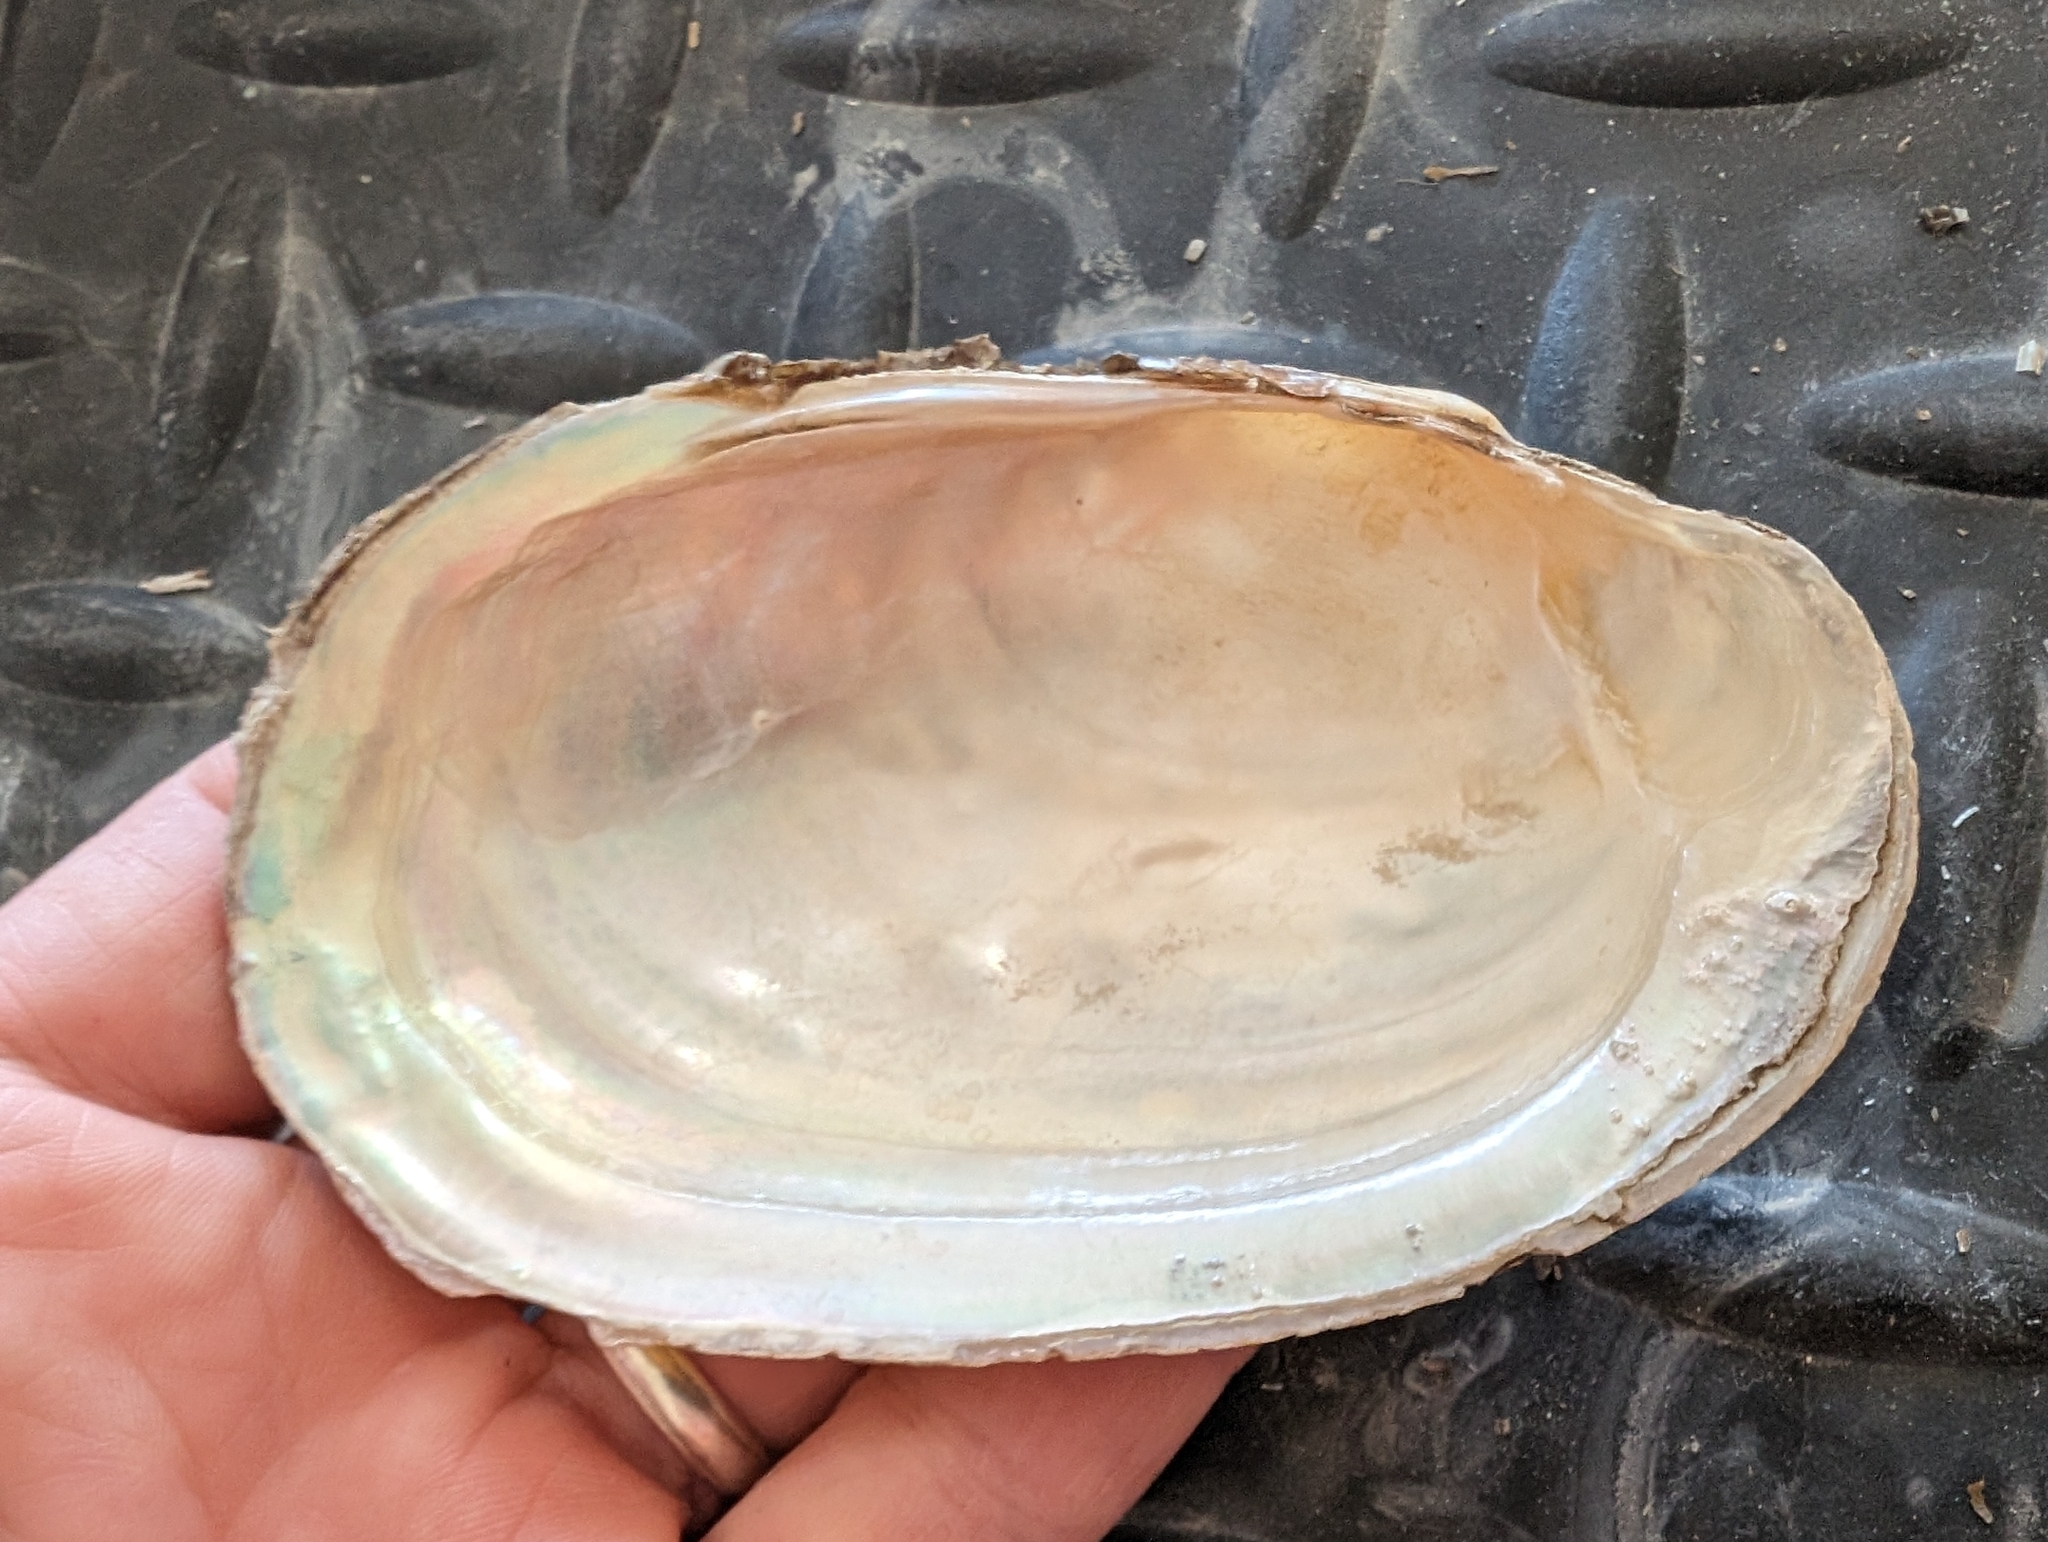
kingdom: Animalia
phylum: Mollusca
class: Bivalvia
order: Unionida
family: Unionidae
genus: Potamilus
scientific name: Potamilus fragilis
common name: Fragile papershell
